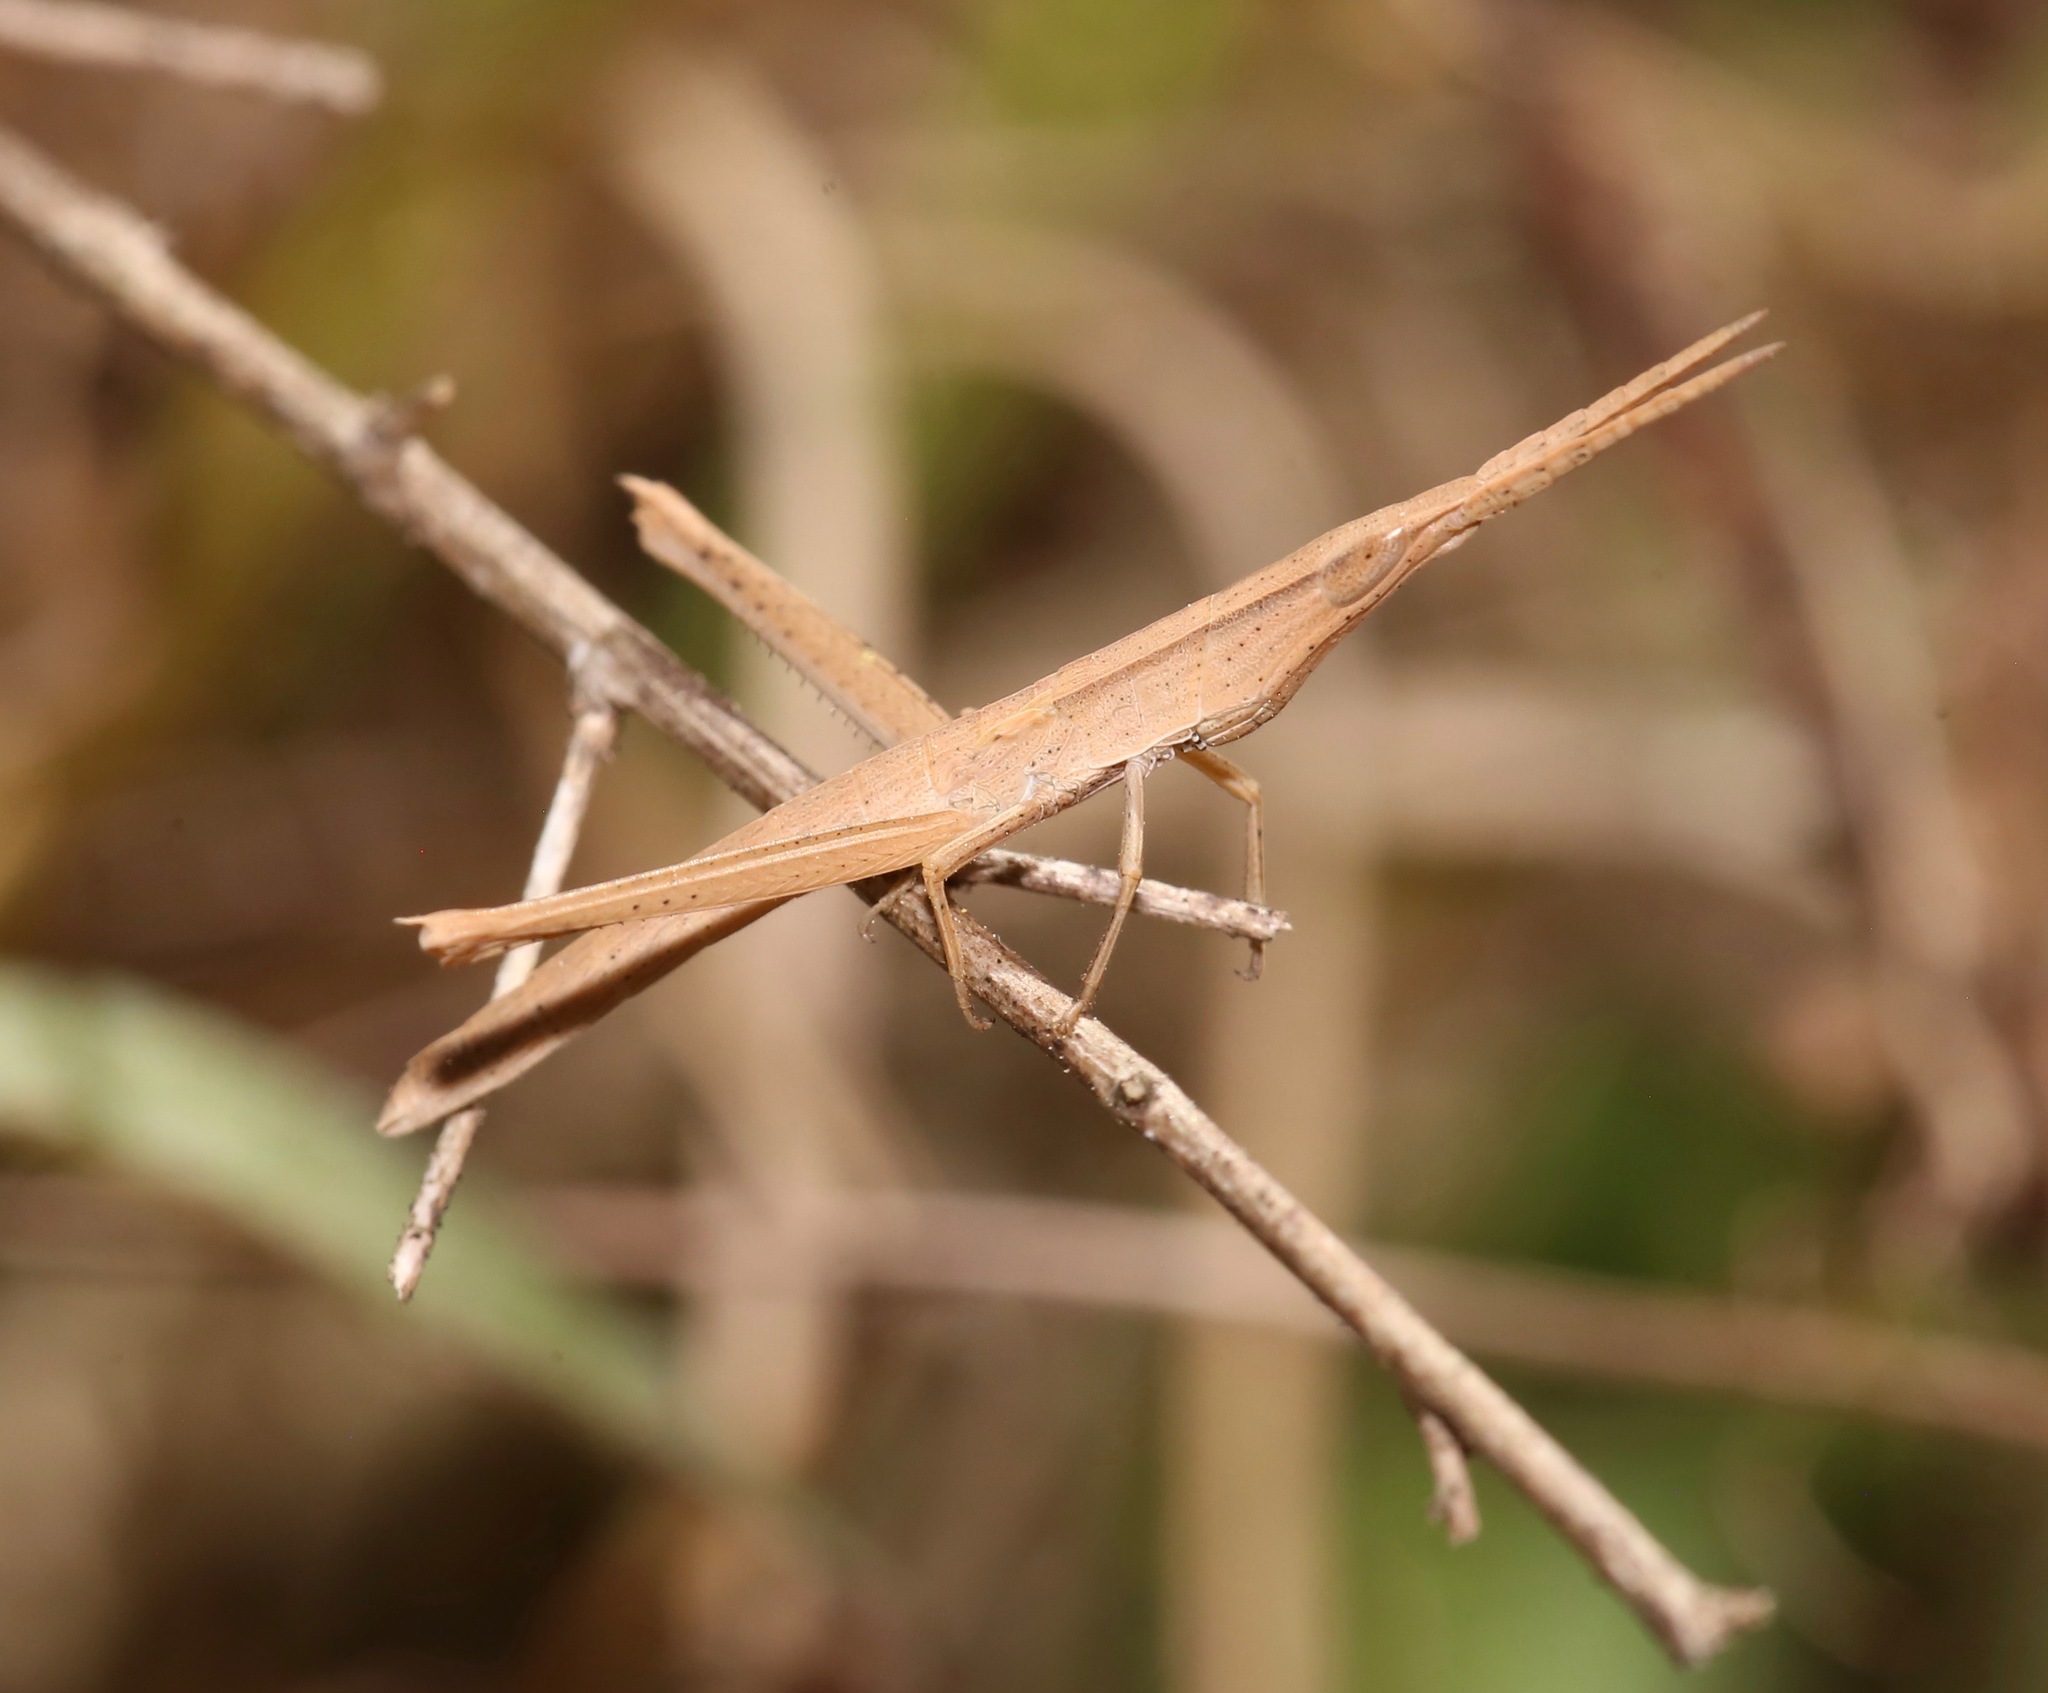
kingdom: Animalia
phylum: Arthropoda
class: Insecta
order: Orthoptera
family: Acrididae
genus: Achurum
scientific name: Achurum carinatum
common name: Long-headed toothpick grasshopper
